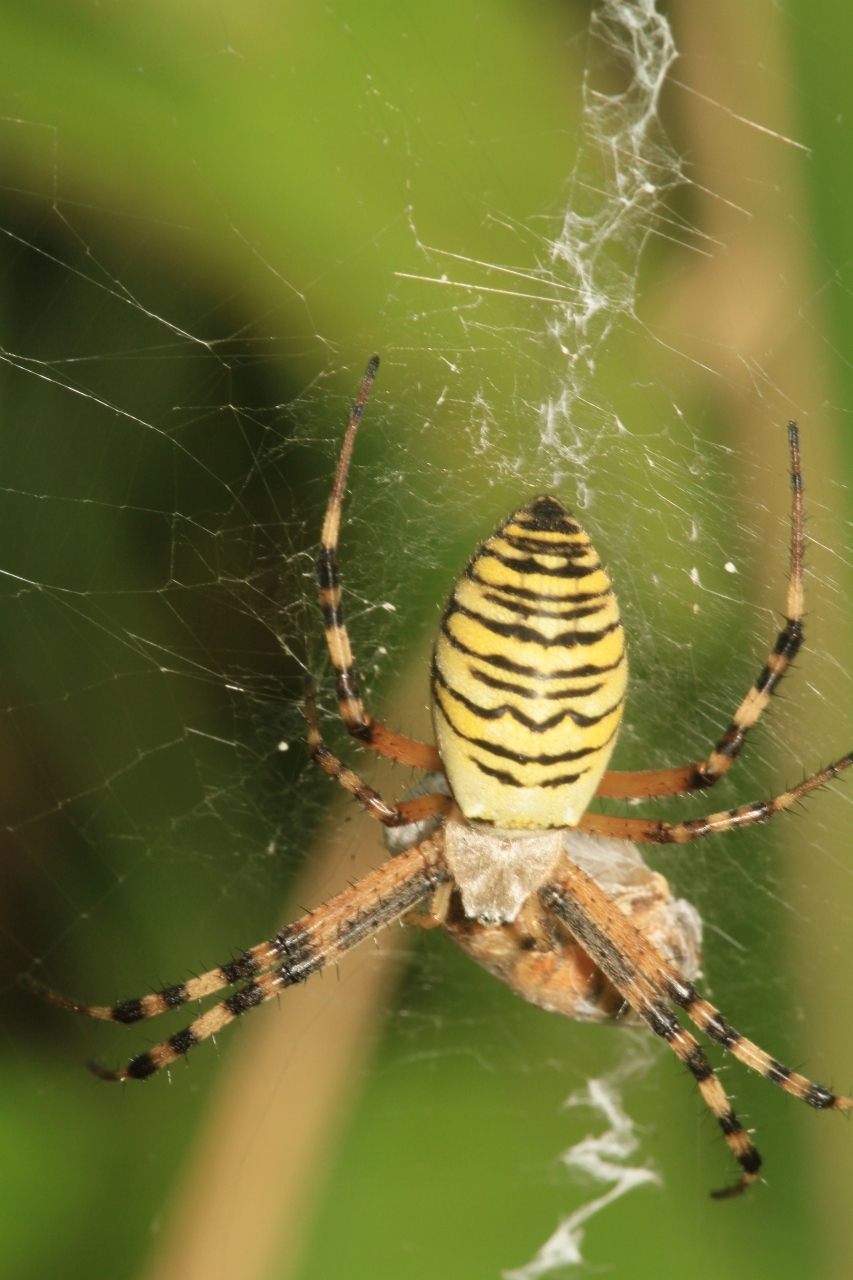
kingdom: Animalia
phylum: Arthropoda
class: Arachnida
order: Araneae
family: Araneidae
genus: Argiope
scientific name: Argiope bruennichi
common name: Wasp spider
